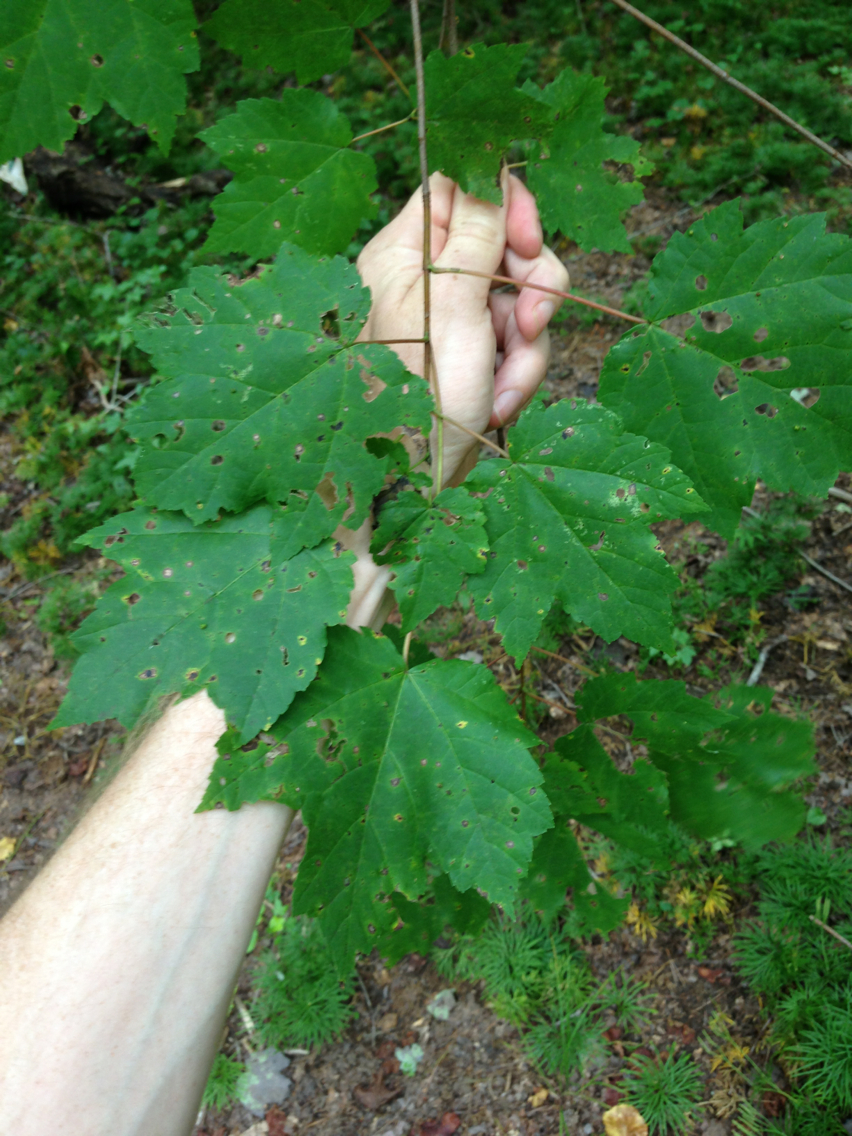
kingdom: Plantae
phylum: Tracheophyta
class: Magnoliopsida
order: Sapindales
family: Sapindaceae
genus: Acer
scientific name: Acer rubrum
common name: Red maple
